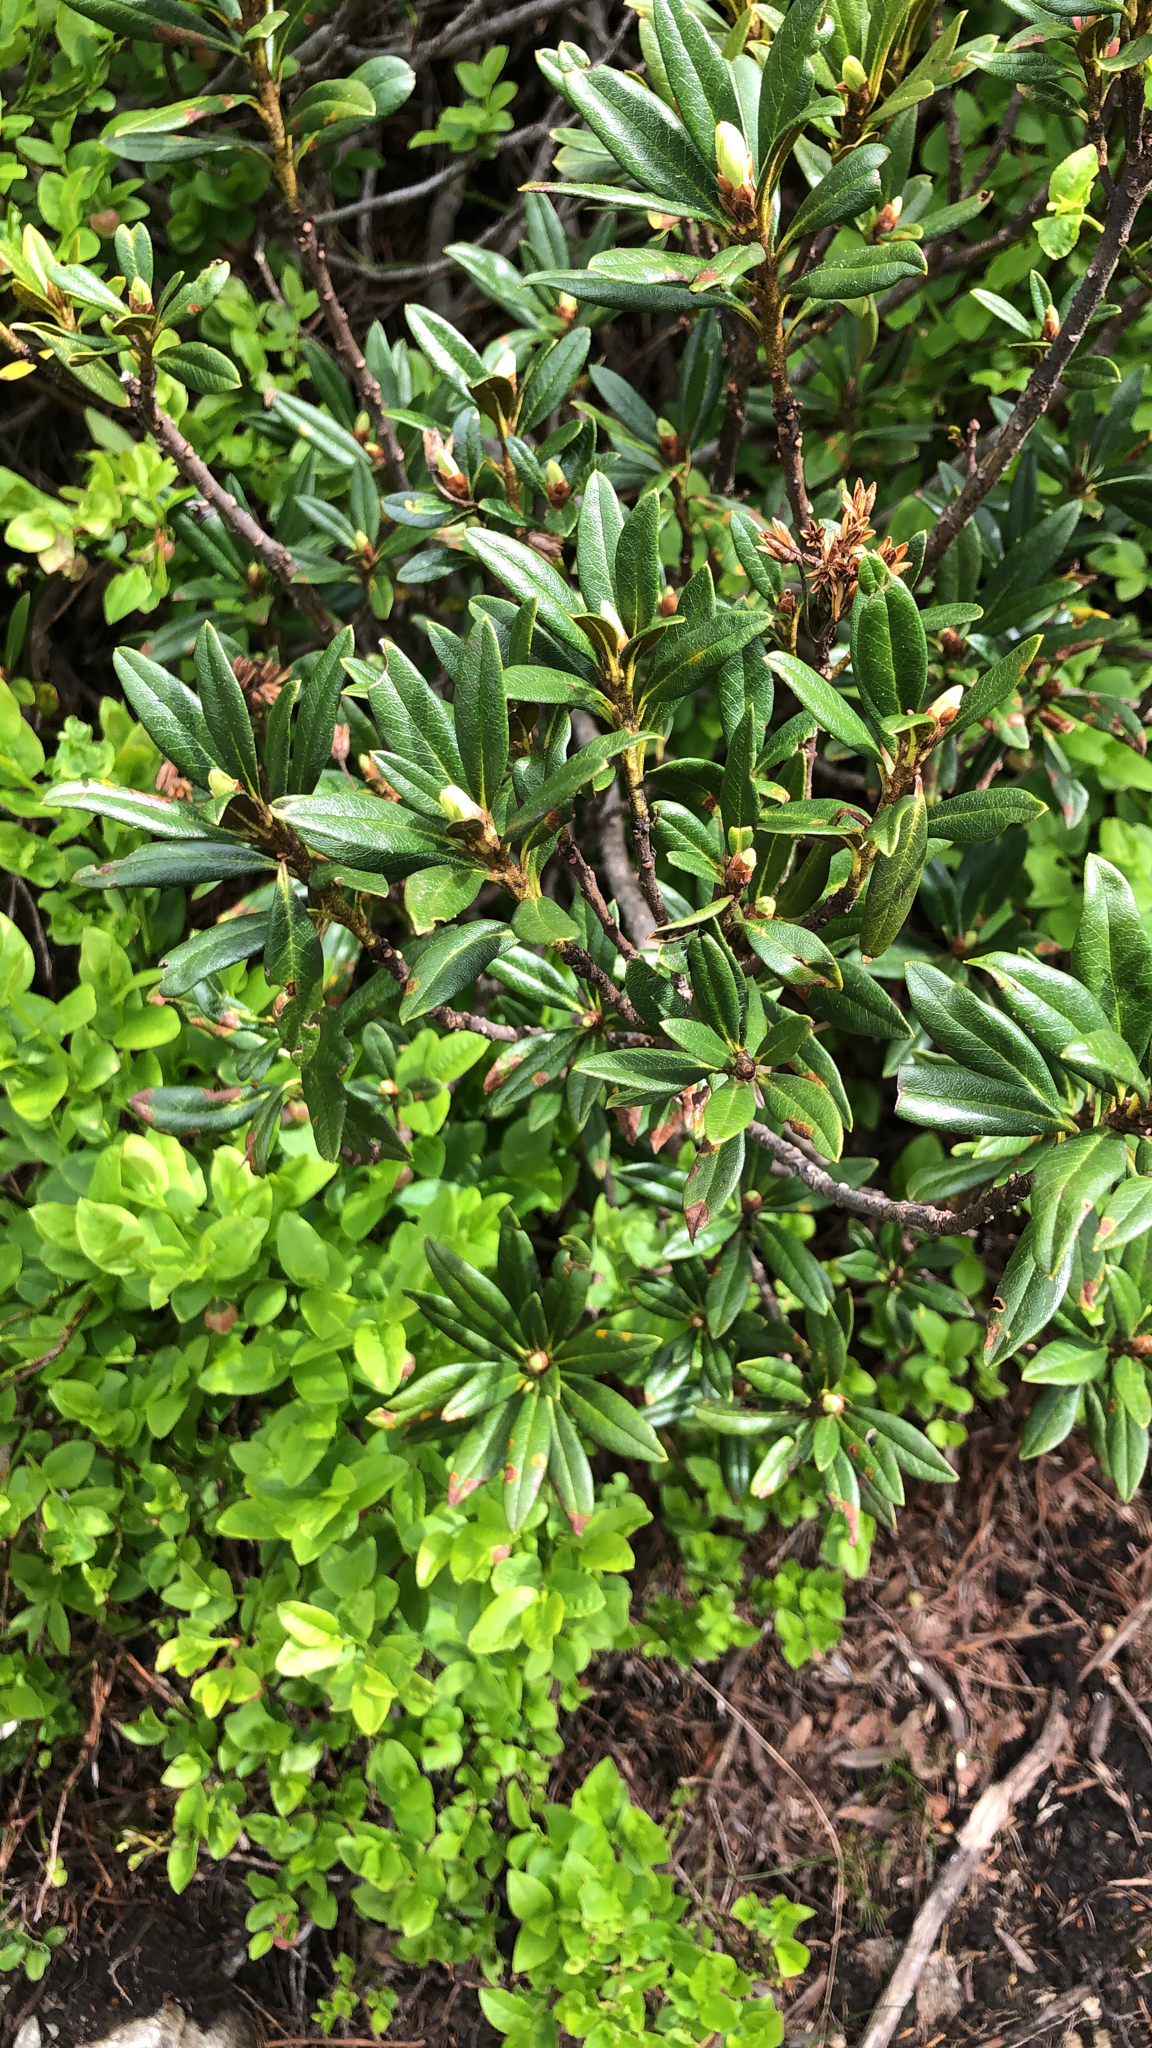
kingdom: Plantae
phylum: Tracheophyta
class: Magnoliopsida
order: Ericales
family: Ericaceae
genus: Rhododendron
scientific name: Rhododendron ferrugineum
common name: Alpenrose
